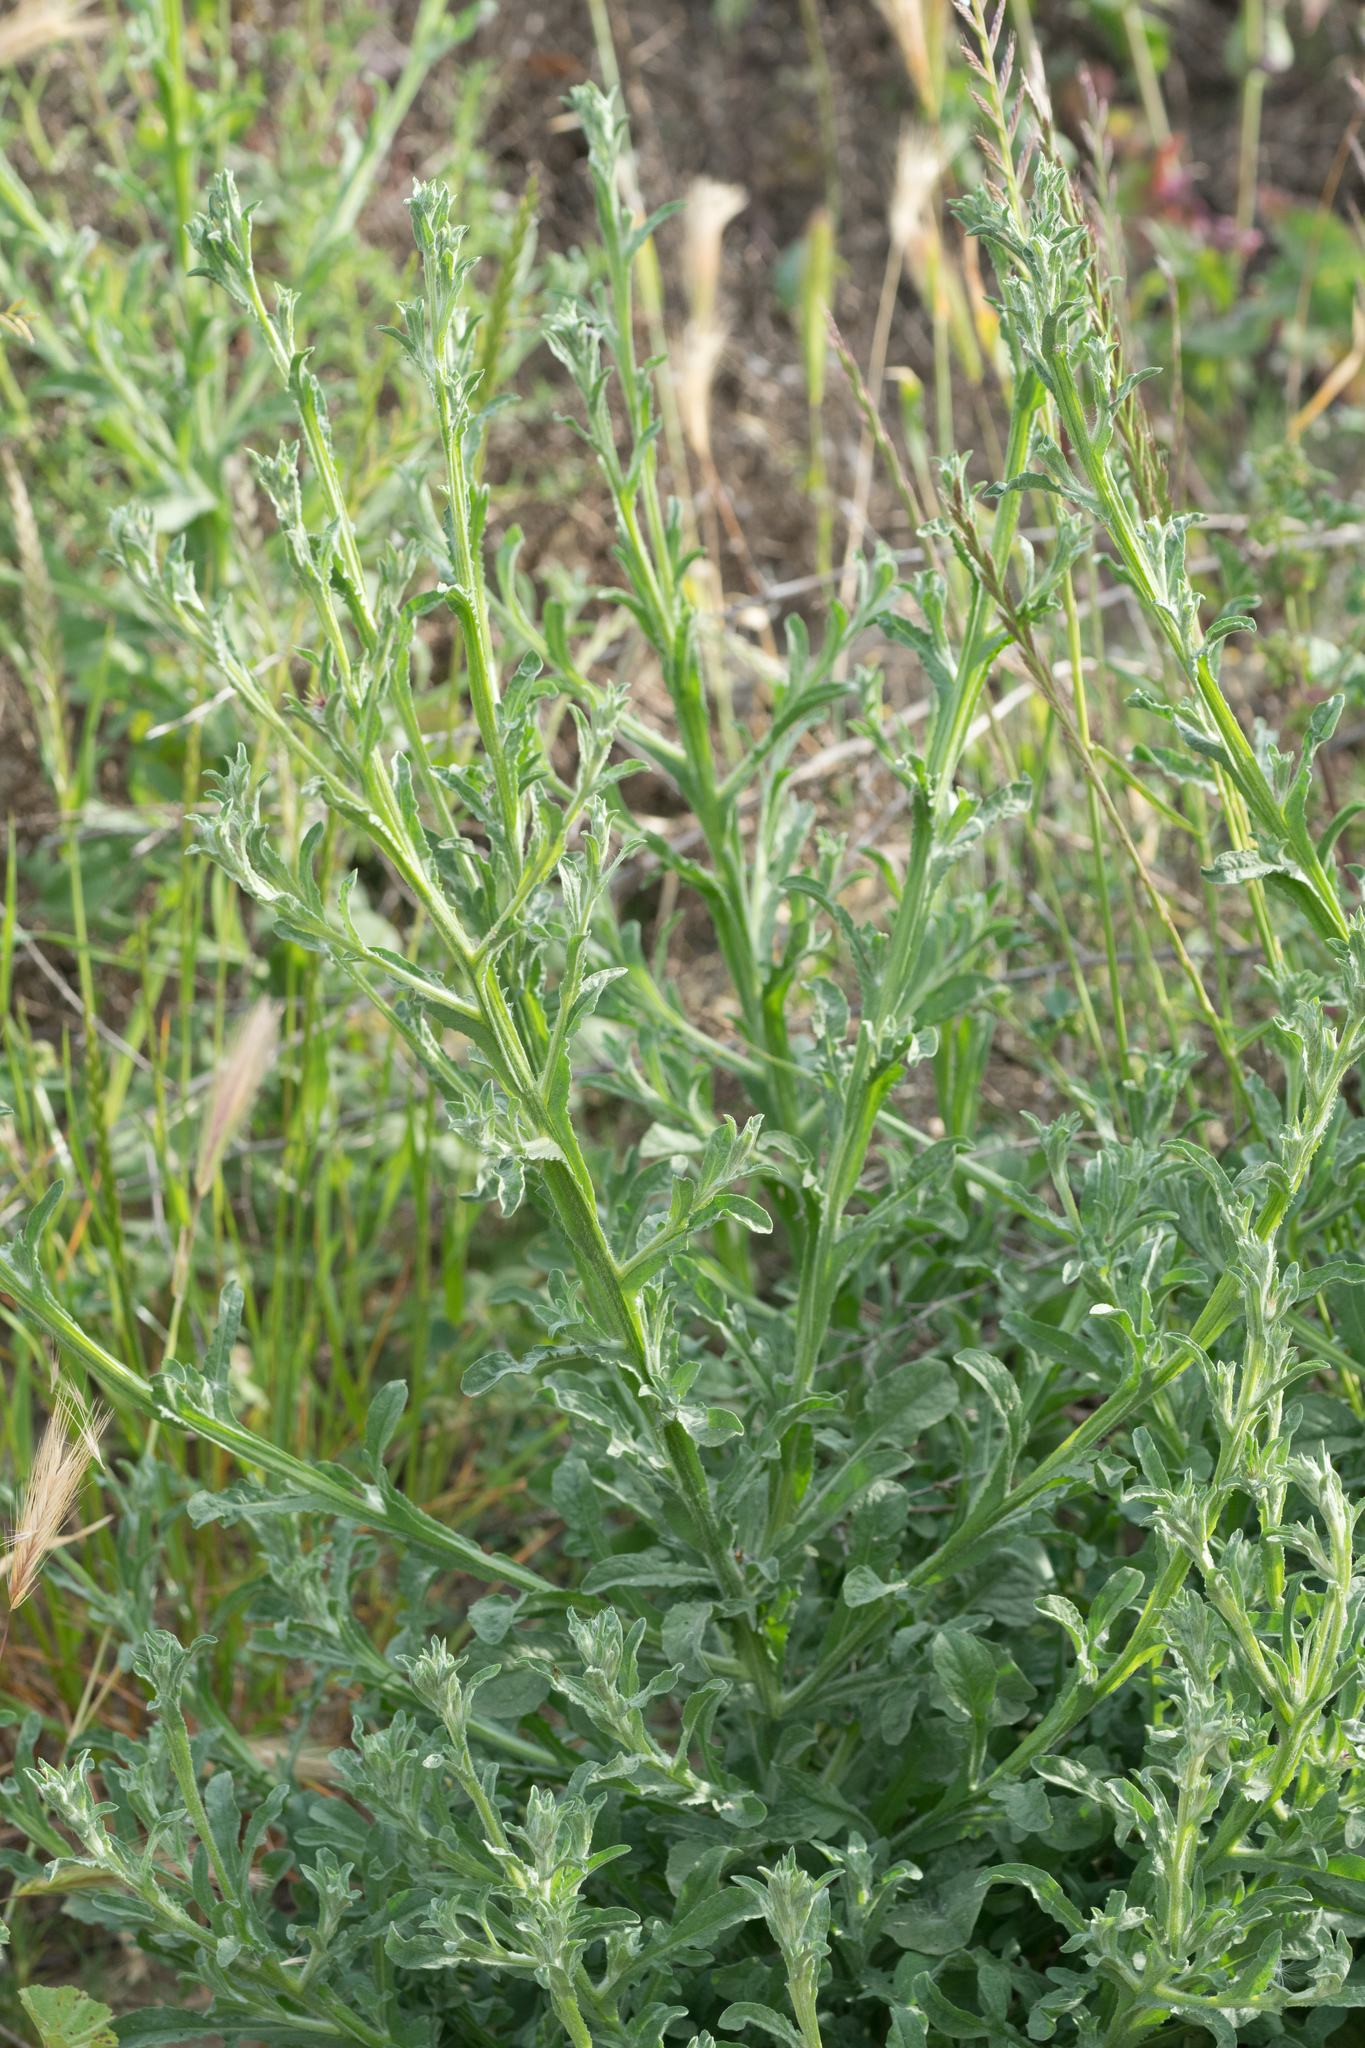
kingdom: Plantae
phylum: Tracheophyta
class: Magnoliopsida
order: Asterales
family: Asteraceae
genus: Centaurea
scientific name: Centaurea melitensis
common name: Maltese star-thistle
